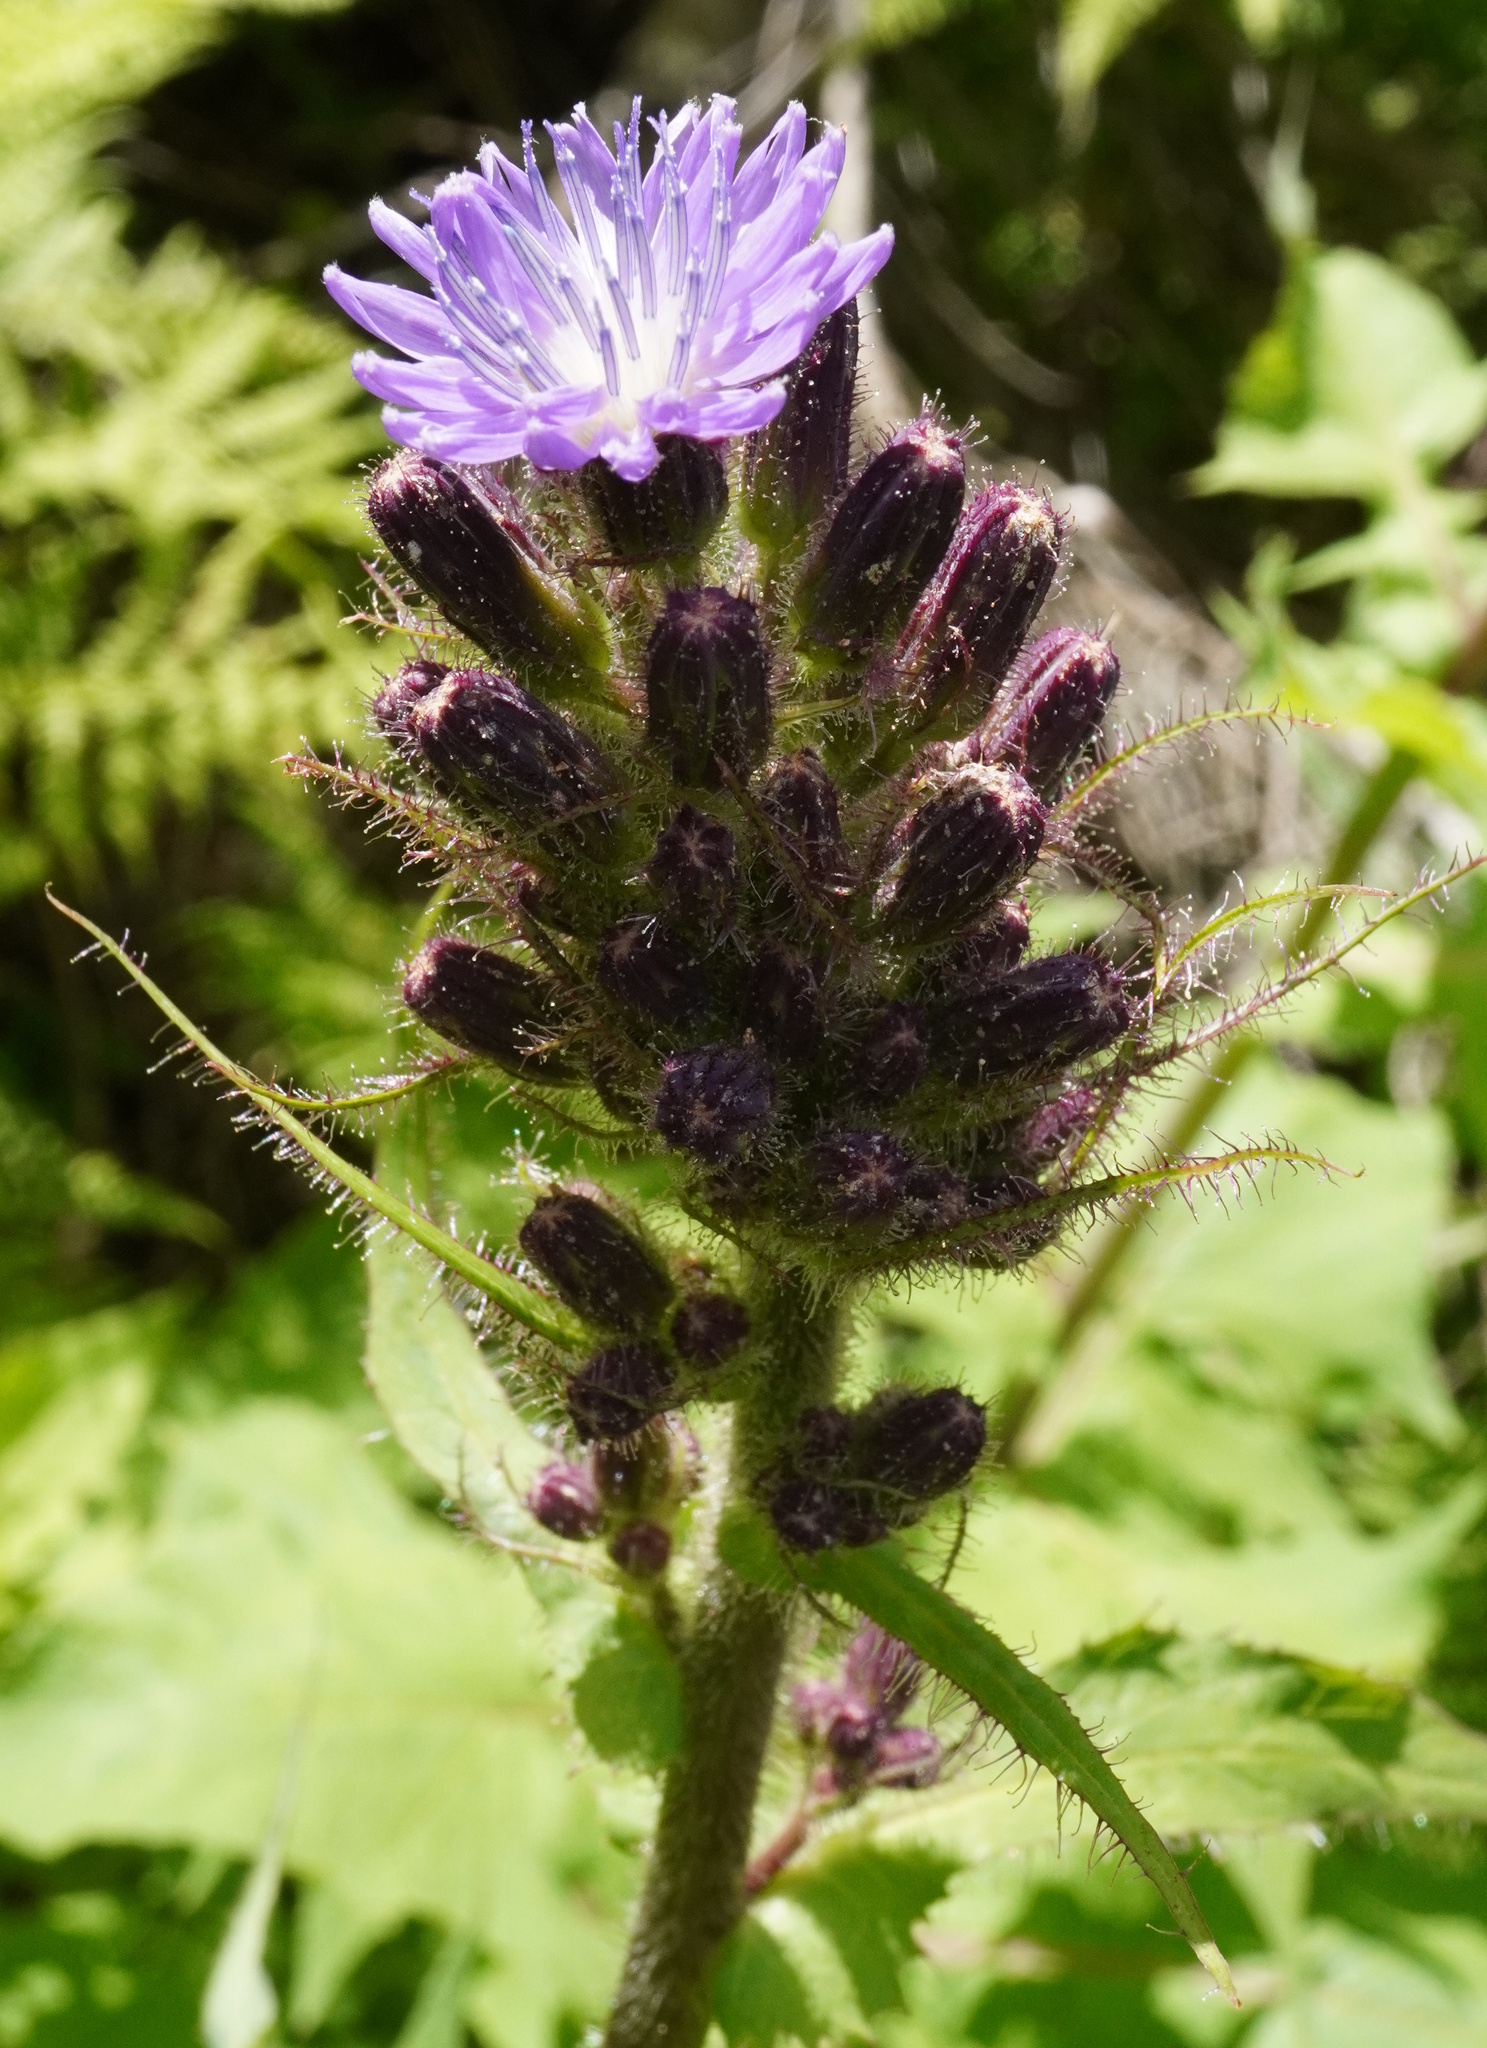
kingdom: Plantae
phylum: Tracheophyta
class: Magnoliopsida
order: Asterales
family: Asteraceae
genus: Cicerbita
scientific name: Cicerbita alpina
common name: Alpine blue-sow-thistle
